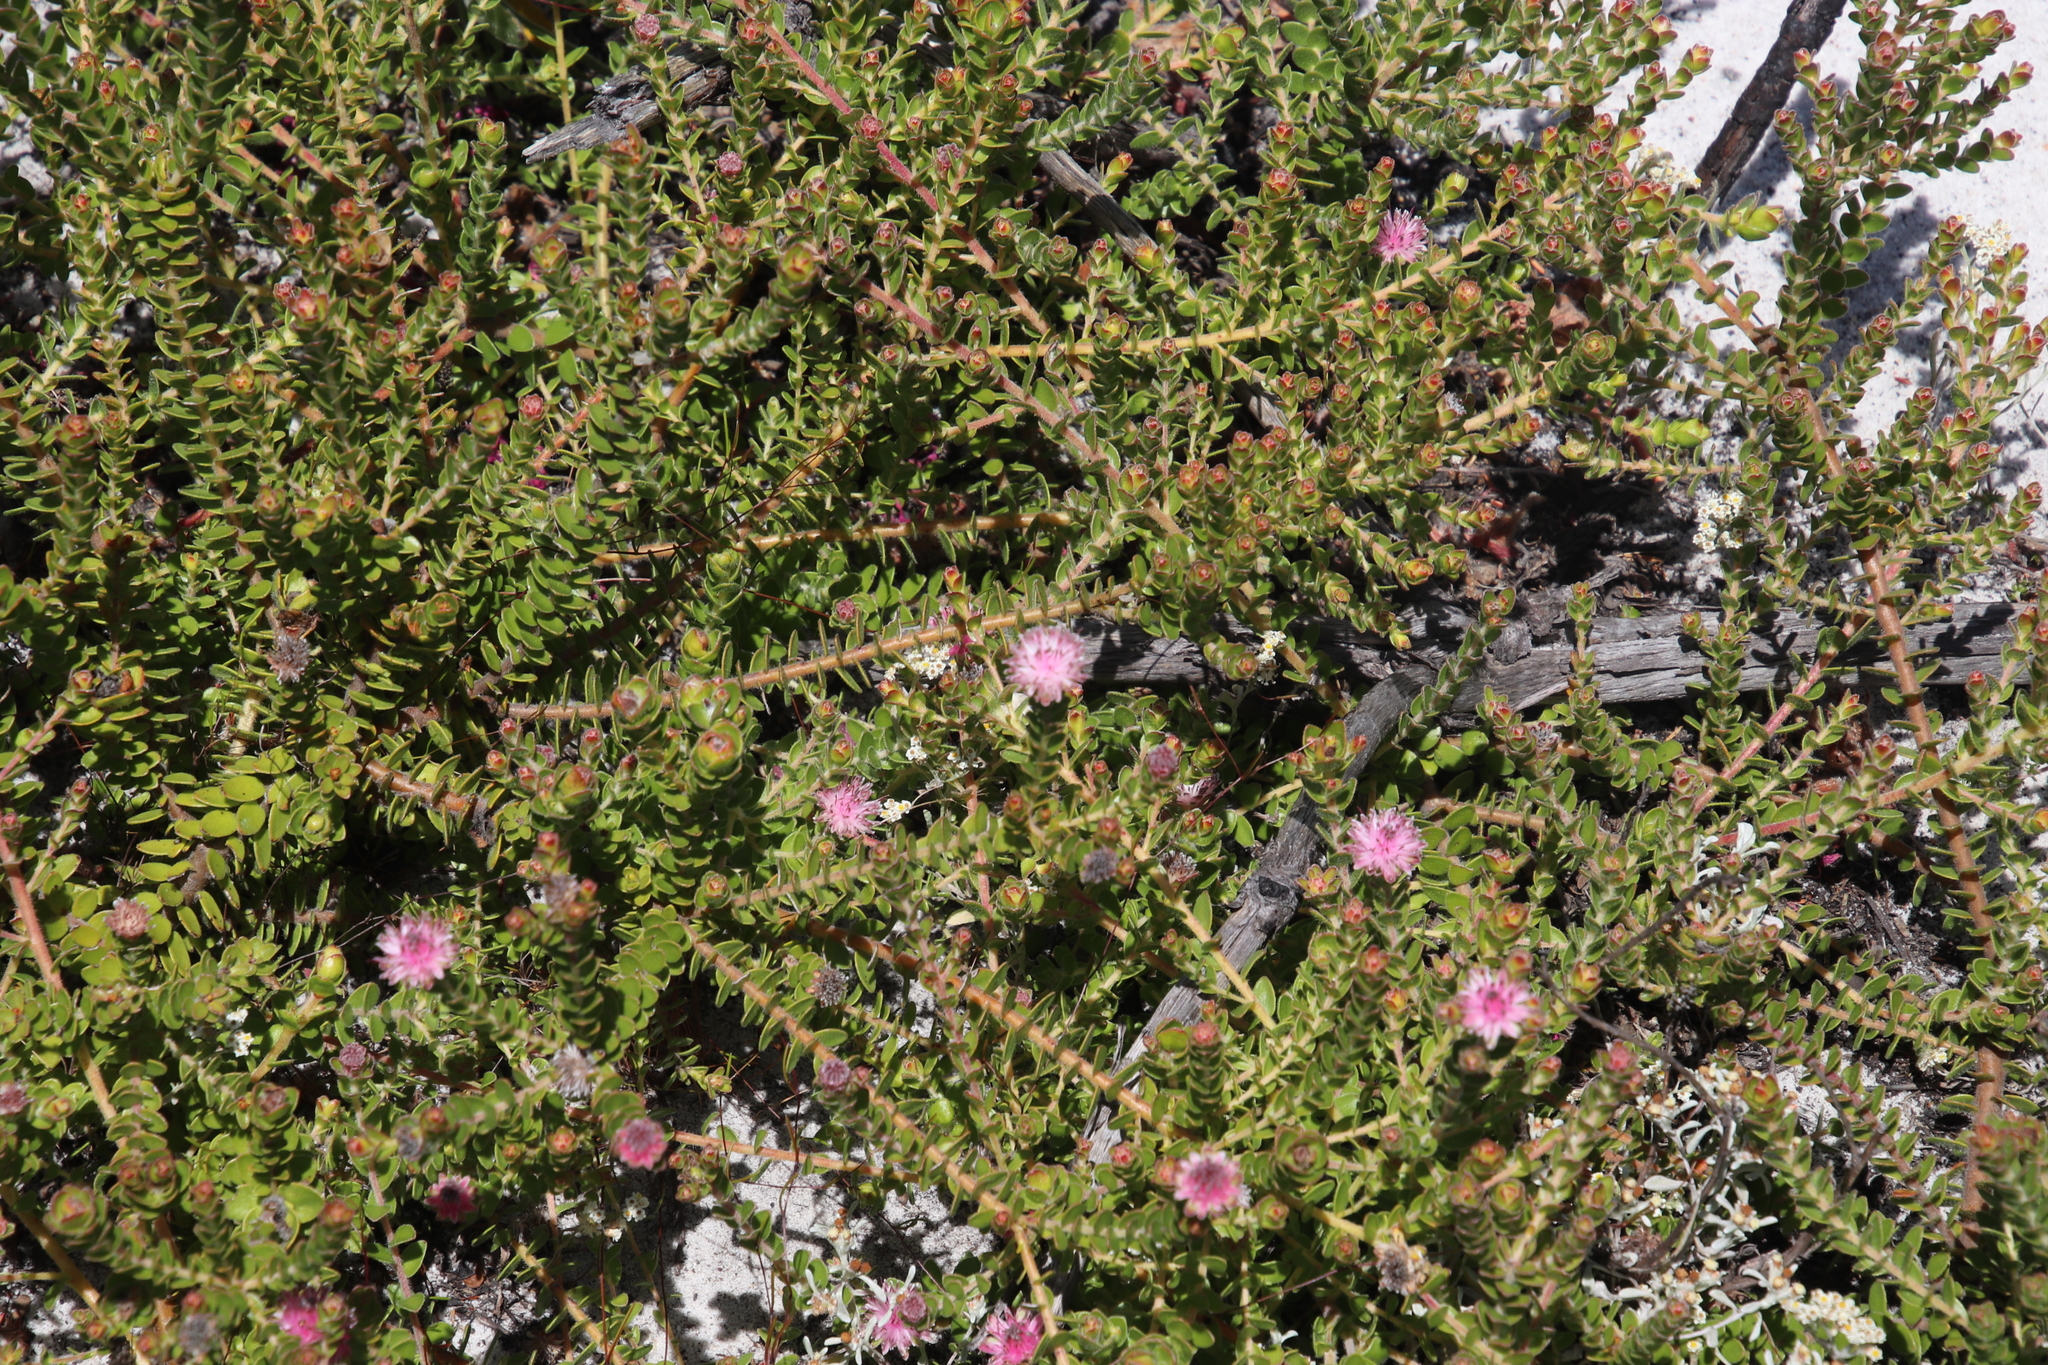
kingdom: Plantae
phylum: Tracheophyta
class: Magnoliopsida
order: Proteales
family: Proteaceae
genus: Diastella
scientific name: Diastella divaricata
